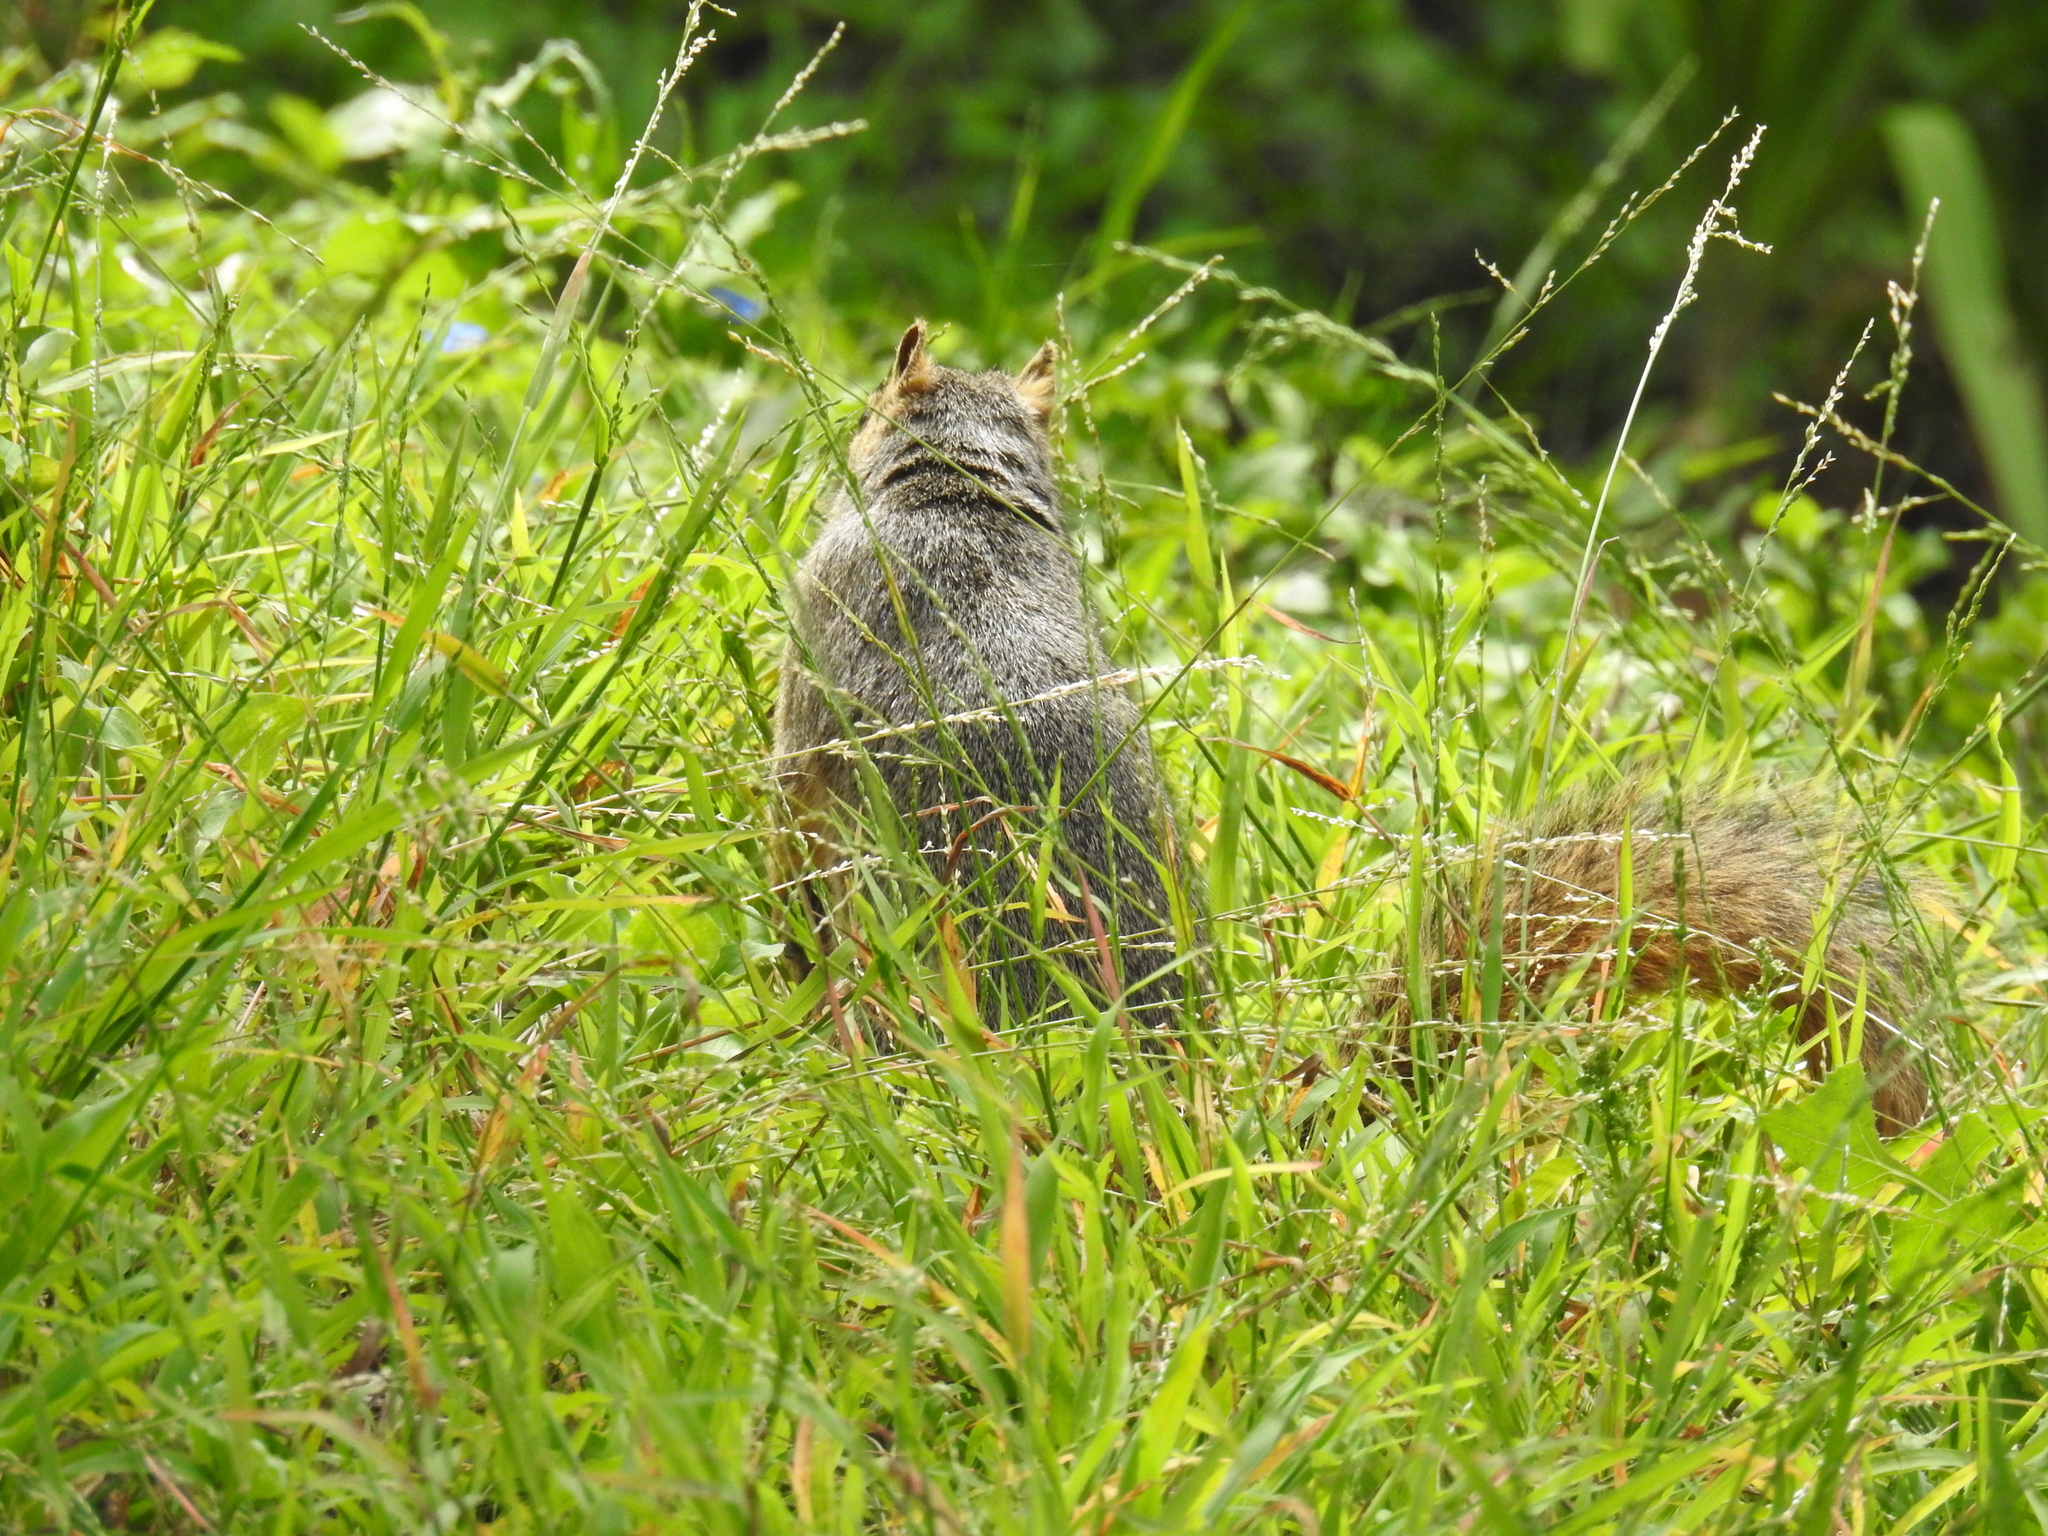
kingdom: Animalia
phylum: Chordata
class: Mammalia
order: Rodentia
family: Sciuridae
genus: Sciurus
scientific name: Sciurus niger
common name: Fox squirrel
